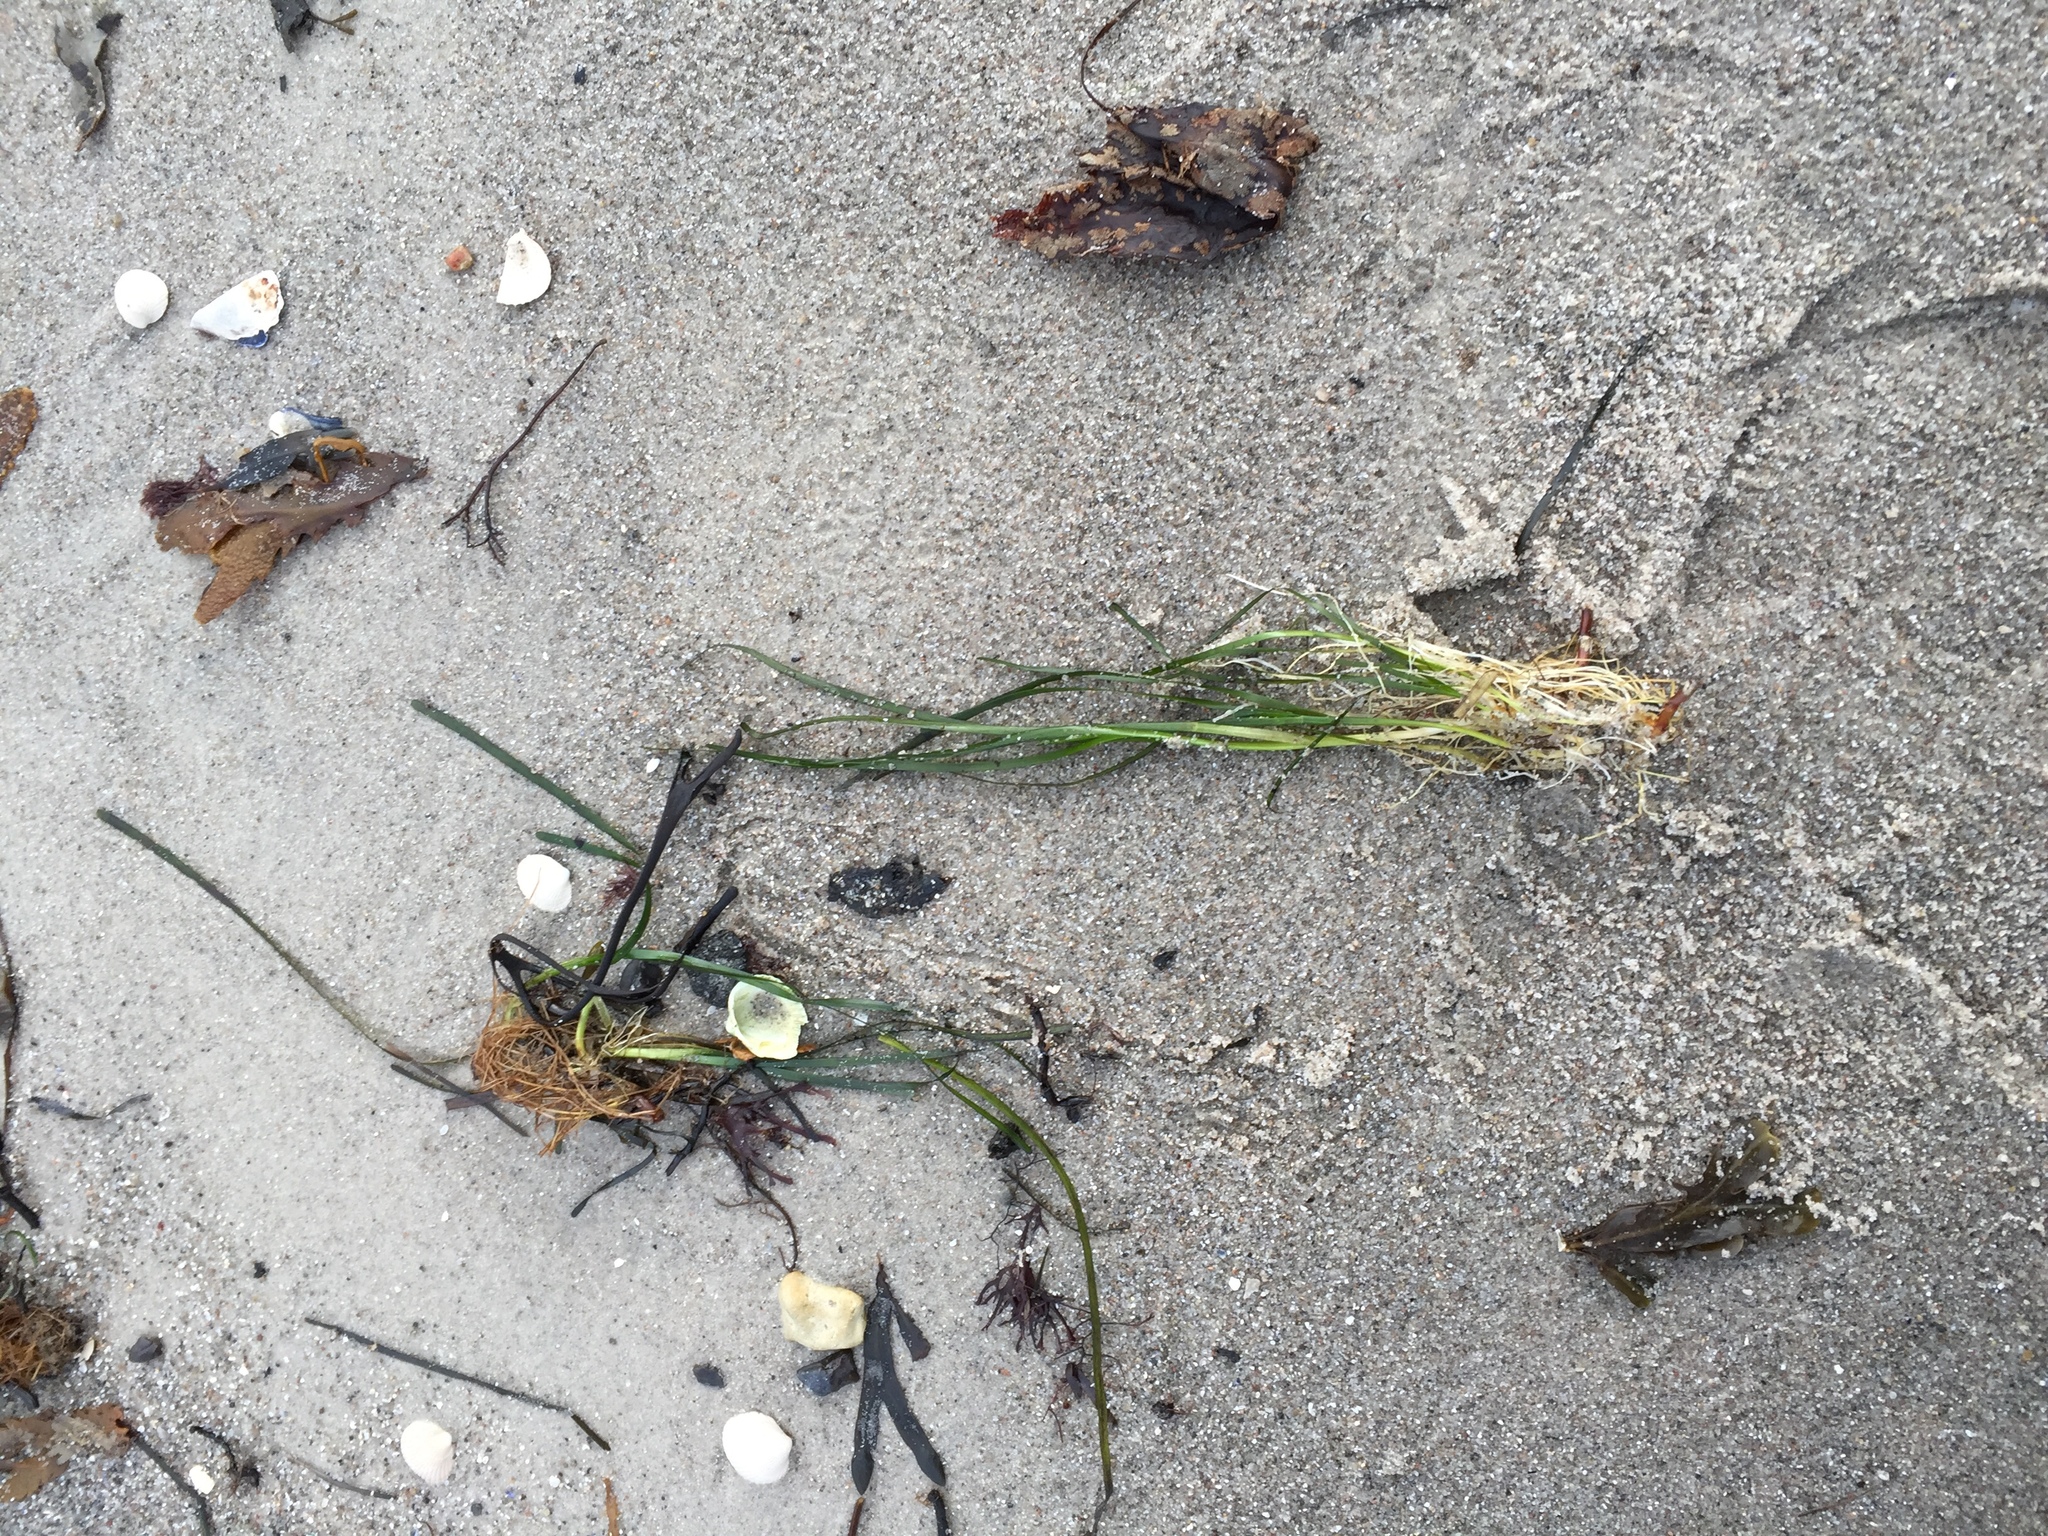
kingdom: Plantae
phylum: Tracheophyta
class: Liliopsida
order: Alismatales
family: Zosteraceae
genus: Zostera
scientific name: Zostera marina
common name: Eelgrass
